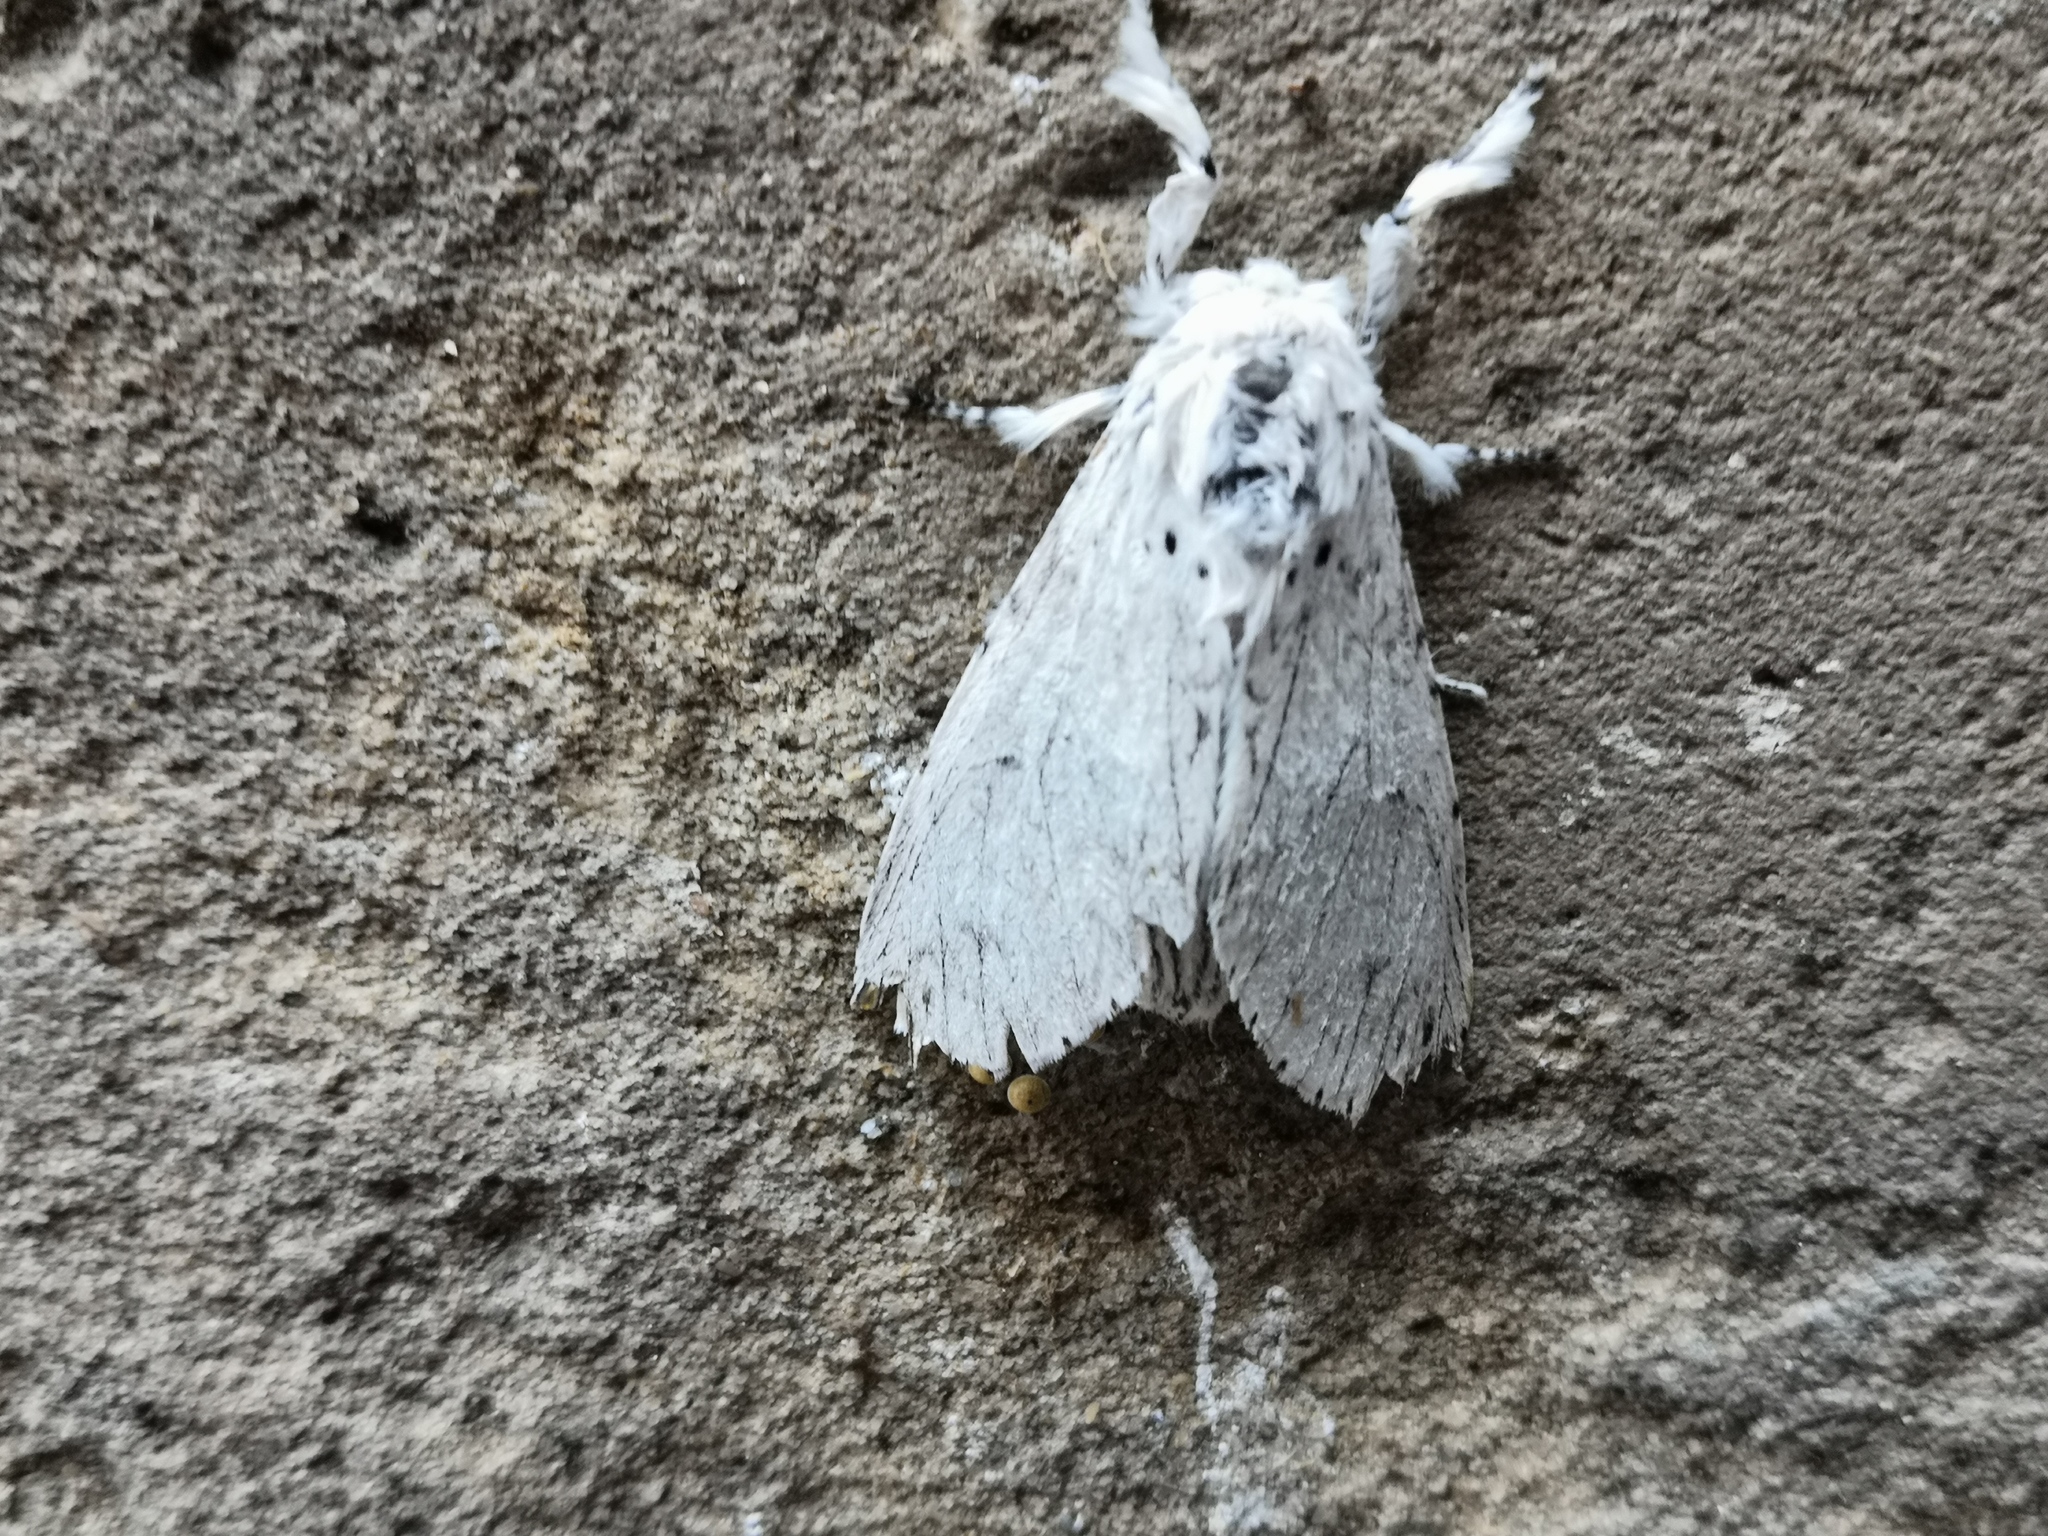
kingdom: Animalia
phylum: Arthropoda
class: Insecta
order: Lepidoptera
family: Notodontidae
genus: Cerura
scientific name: Cerura erminea
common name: Lesser puss moth
